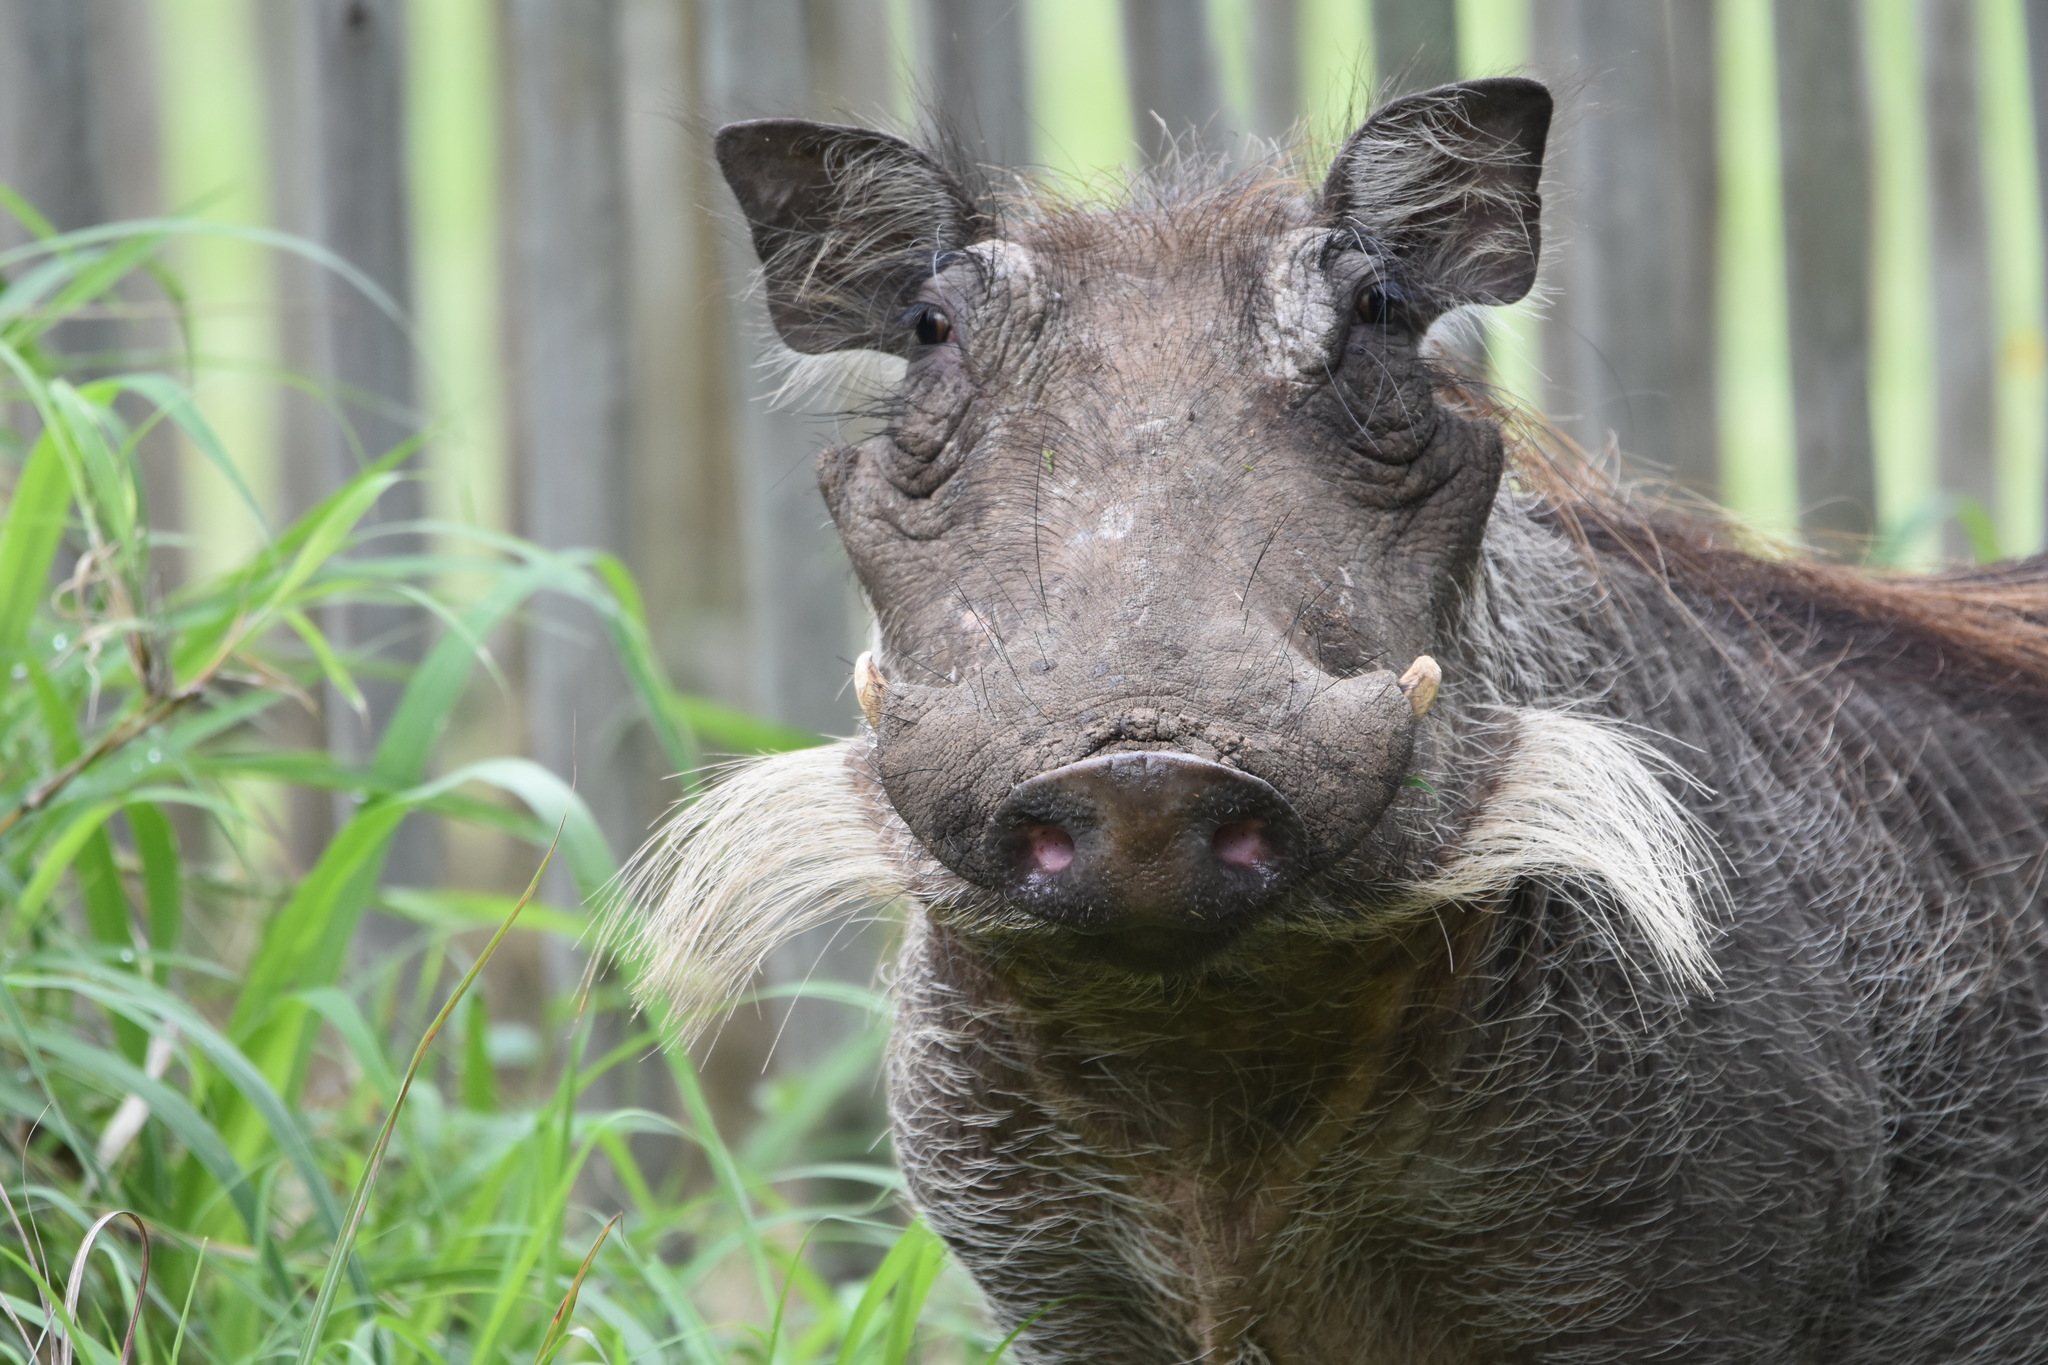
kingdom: Animalia
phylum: Chordata
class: Mammalia
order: Artiodactyla
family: Suidae
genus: Phacochoerus
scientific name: Phacochoerus africanus
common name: Common warthog
